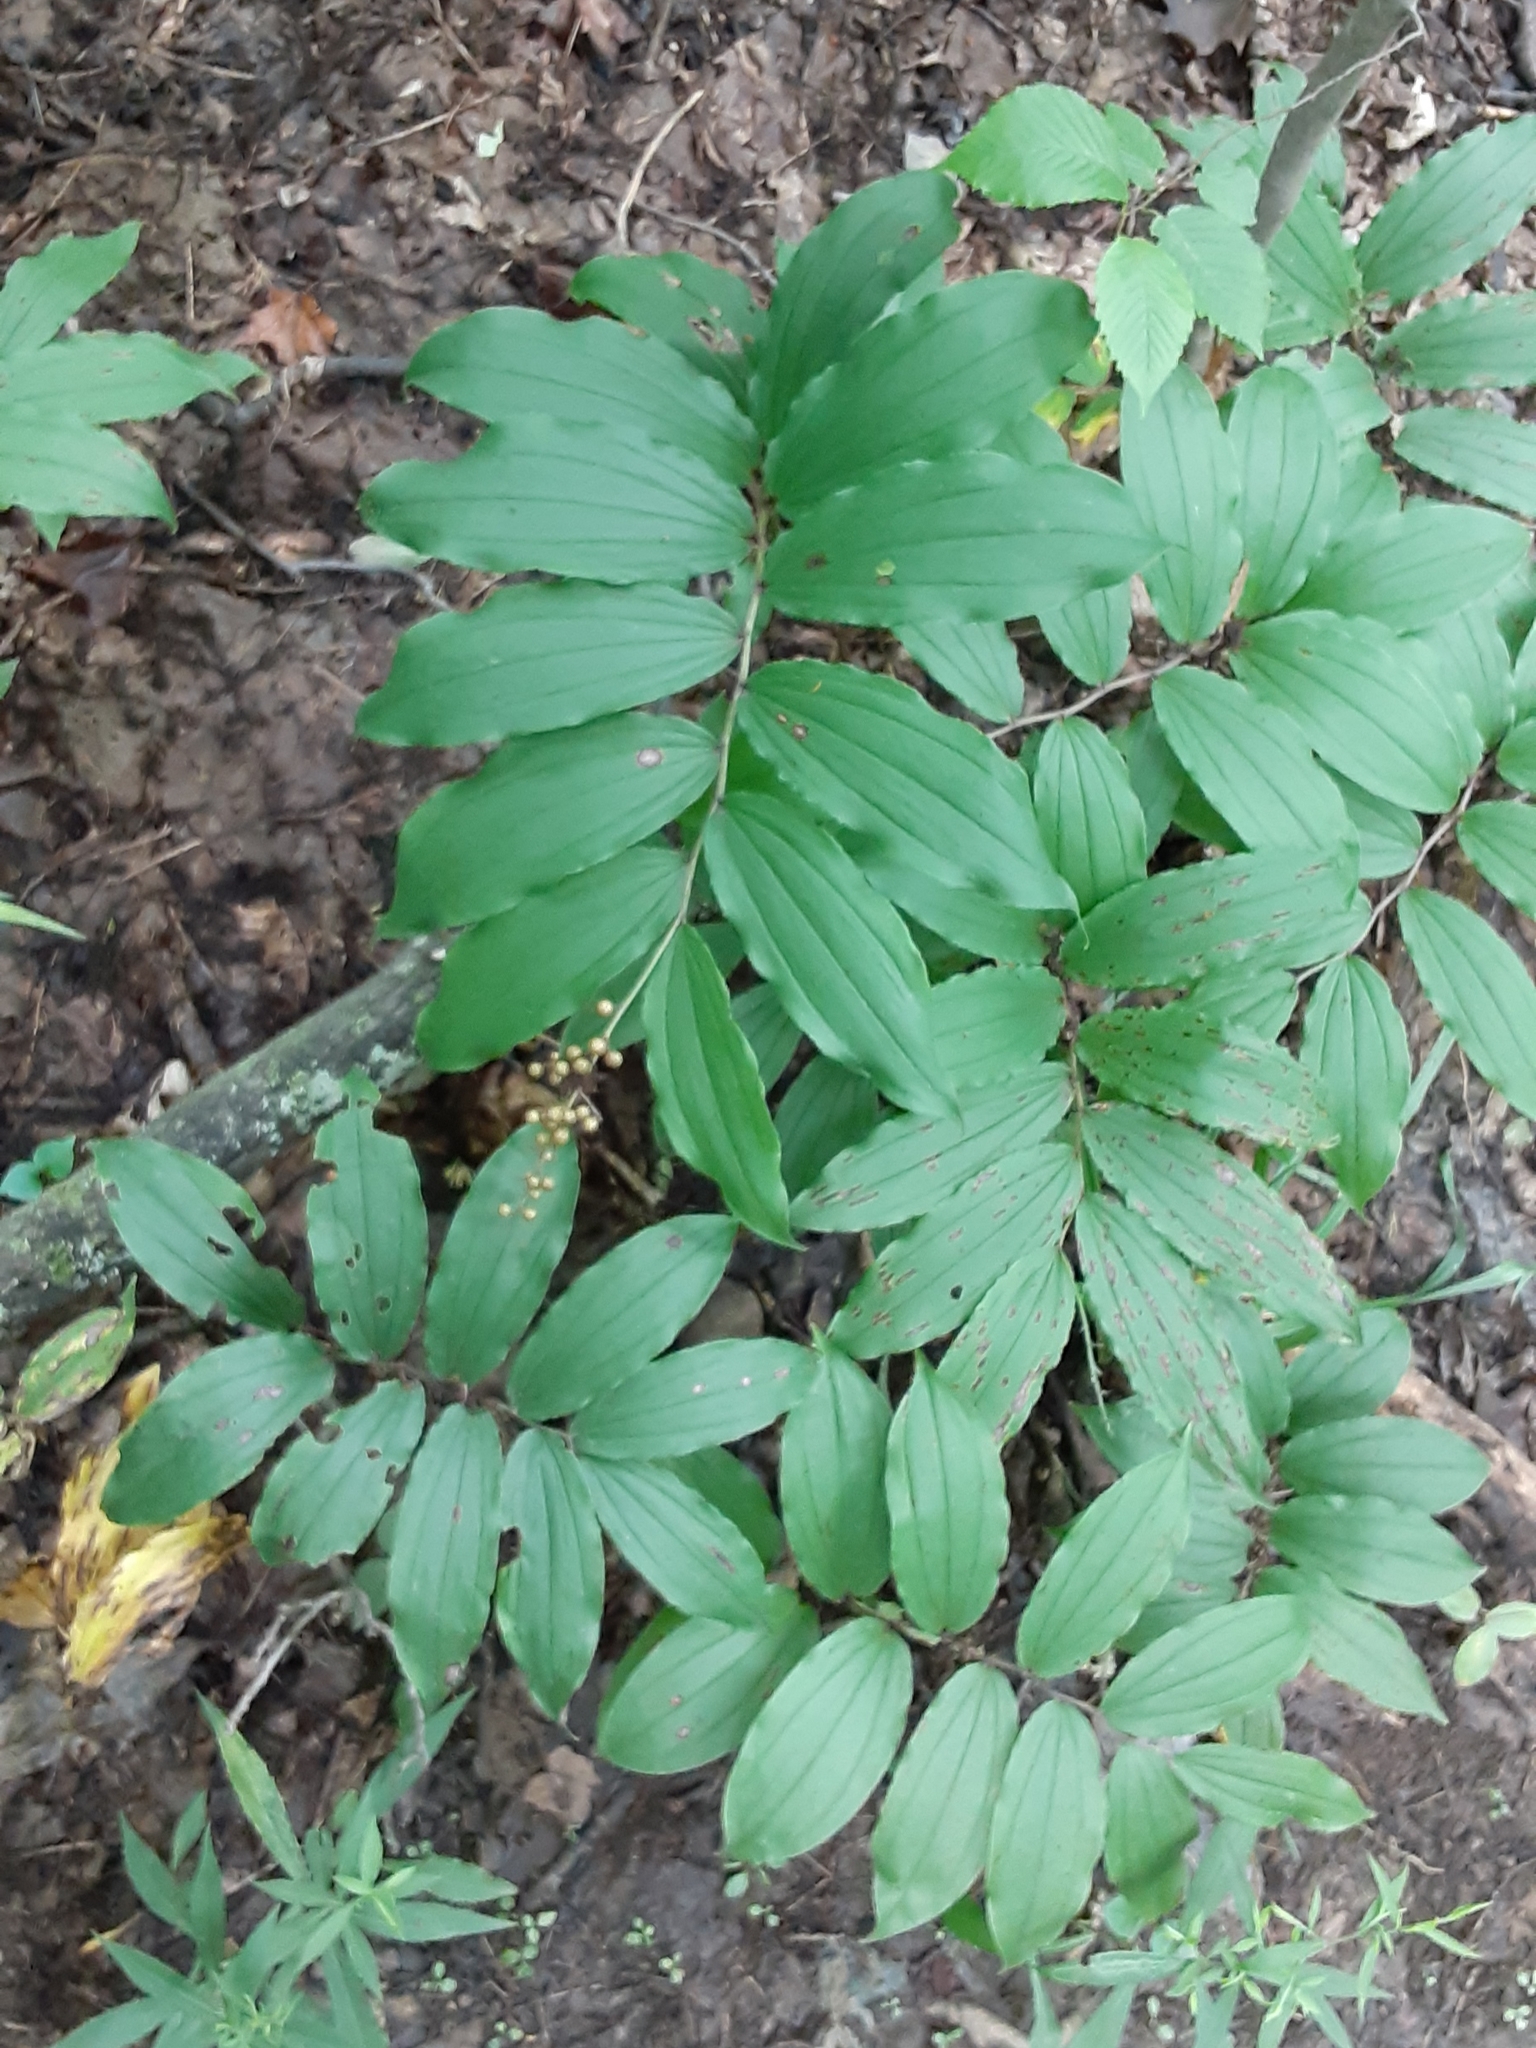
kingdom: Plantae
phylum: Tracheophyta
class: Liliopsida
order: Asparagales
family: Asparagaceae
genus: Maianthemum
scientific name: Maianthemum racemosum
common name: False spikenard
